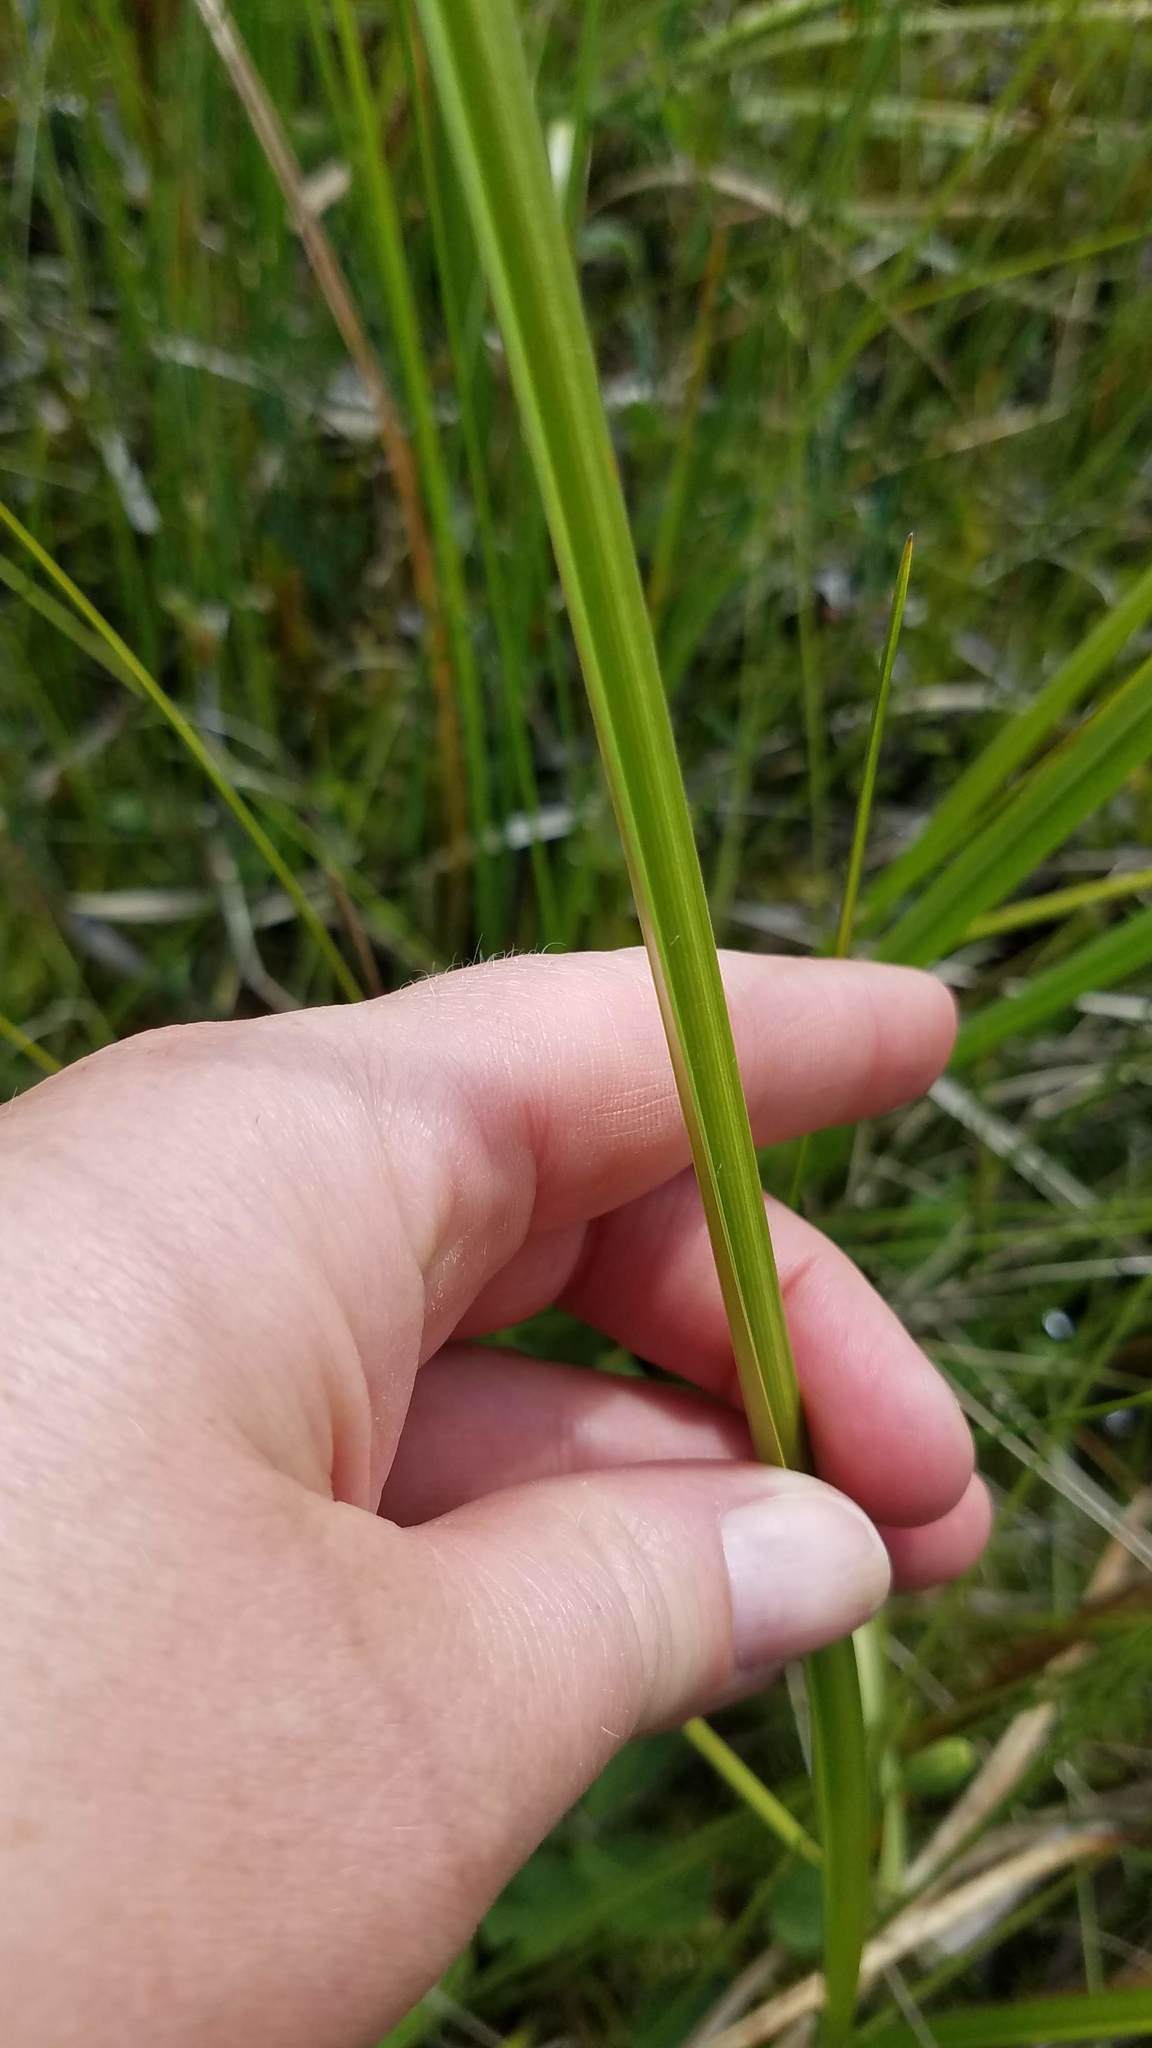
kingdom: Plantae
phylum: Tracheophyta
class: Liliopsida
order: Poales
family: Cyperaceae
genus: Carex
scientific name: Carex utriculata
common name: Beaked sedge
